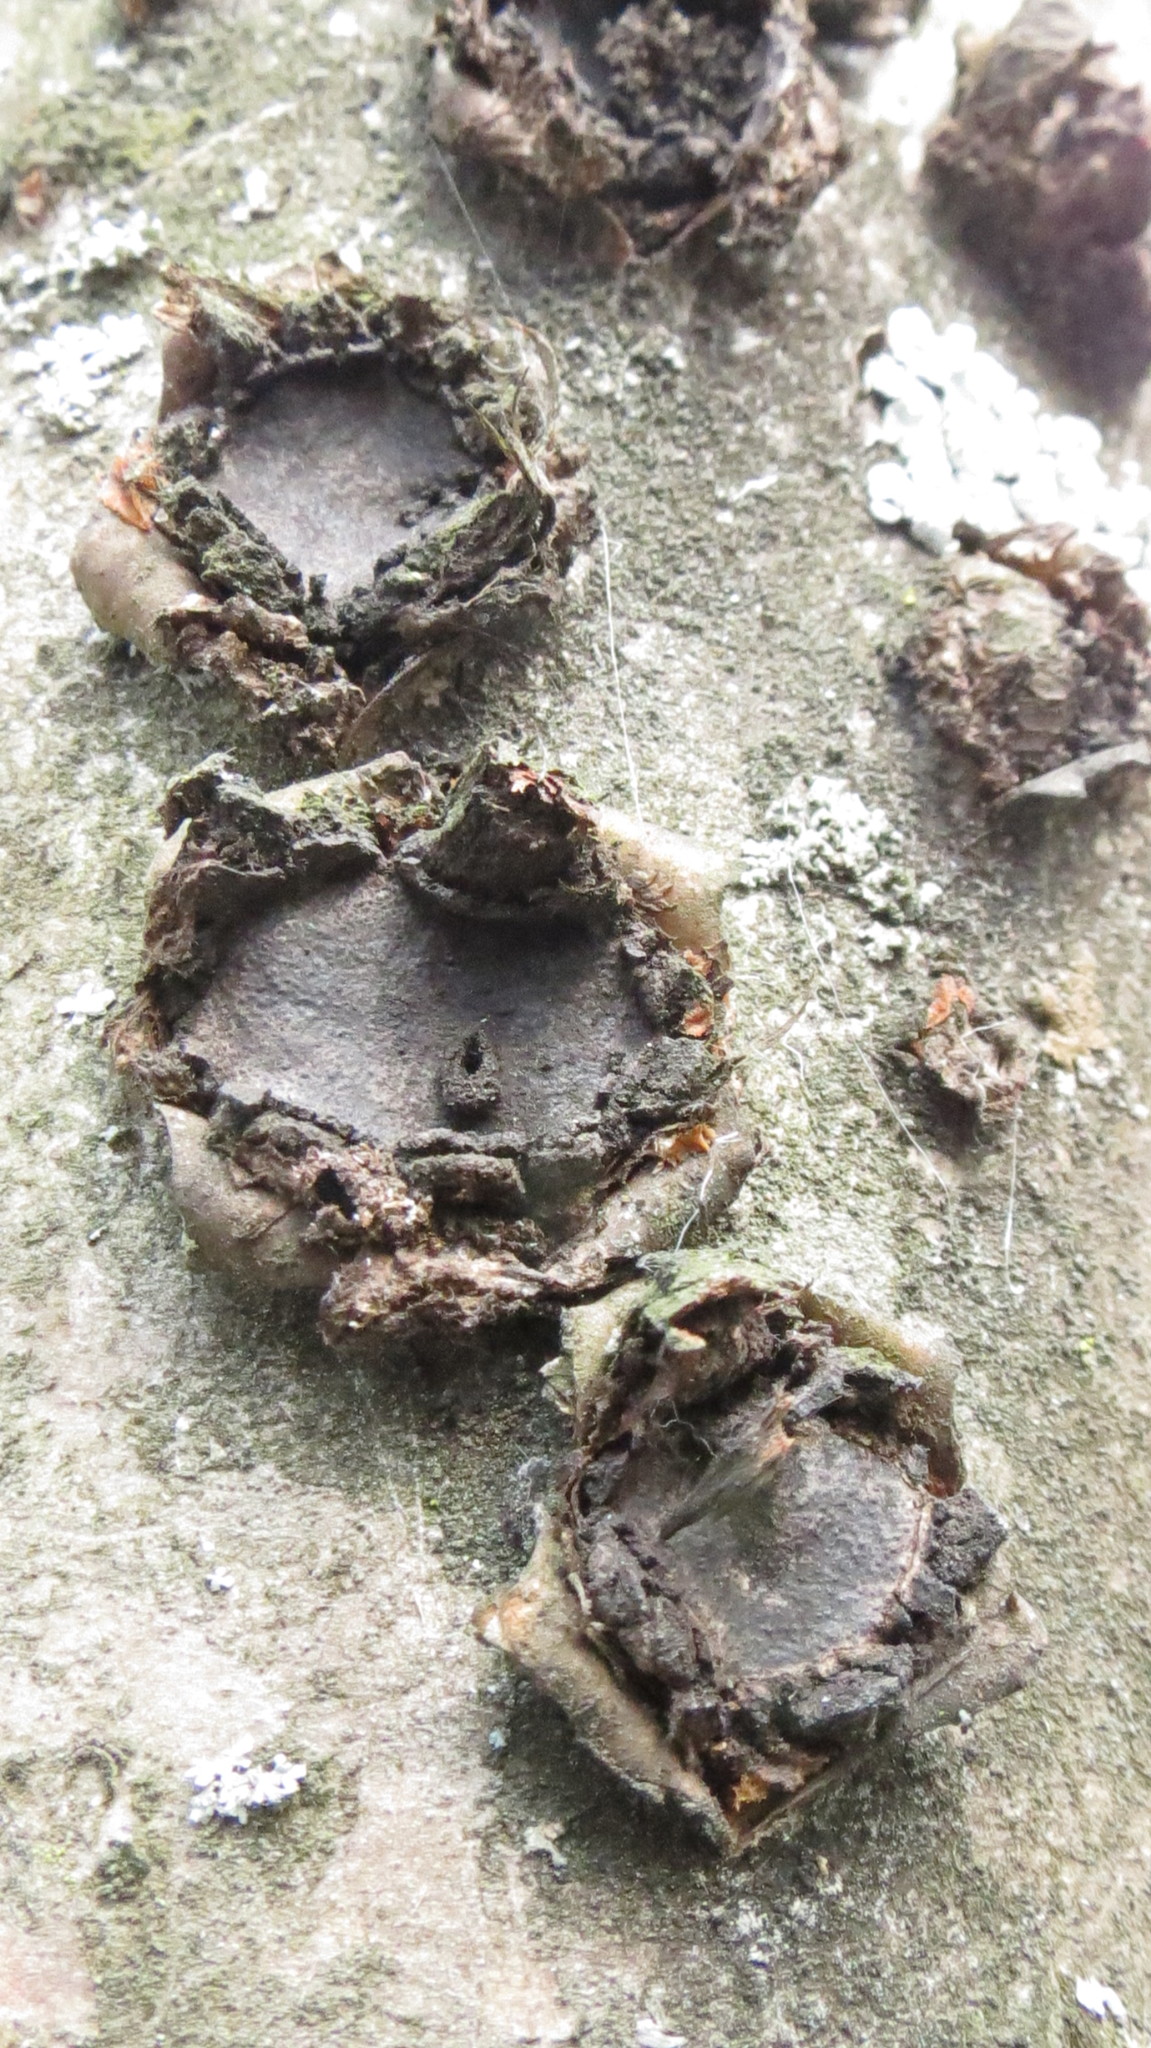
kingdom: Fungi
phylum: Ascomycota
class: Sordariomycetes
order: Xylariales
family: Graphostromataceae
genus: Biscogniauxia
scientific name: Biscogniauxia granmoi
